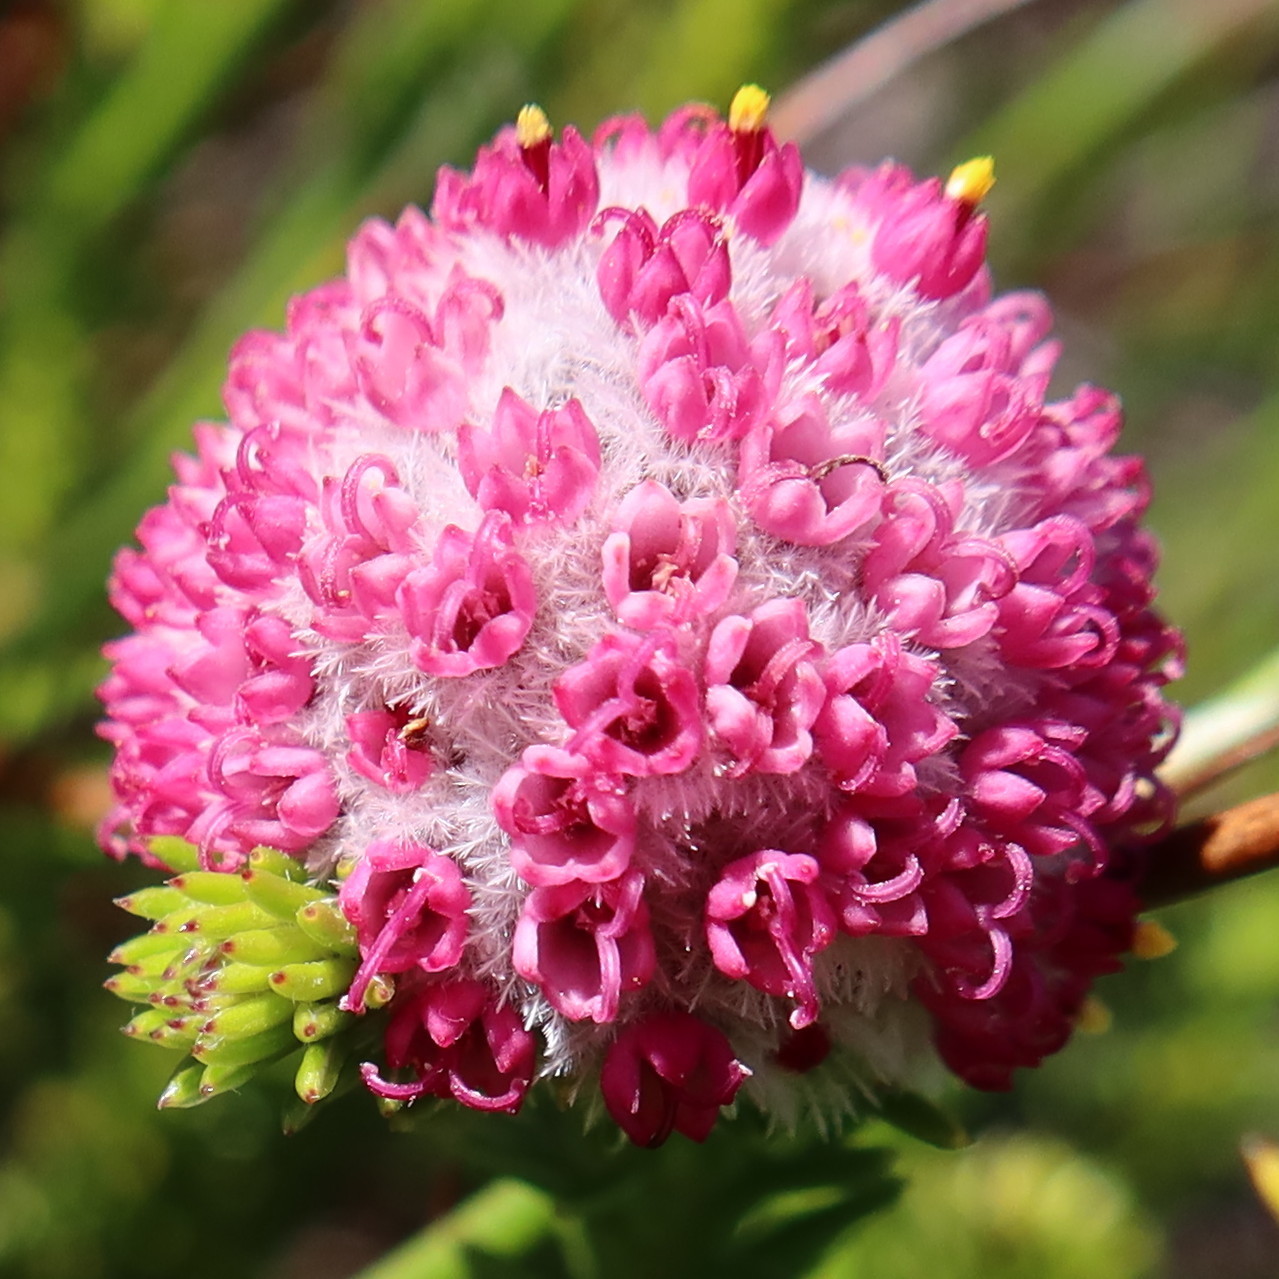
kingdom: Plantae
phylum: Tracheophyta
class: Magnoliopsida
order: Asterales
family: Asteraceae
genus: Stoebe
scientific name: Stoebe rosea
